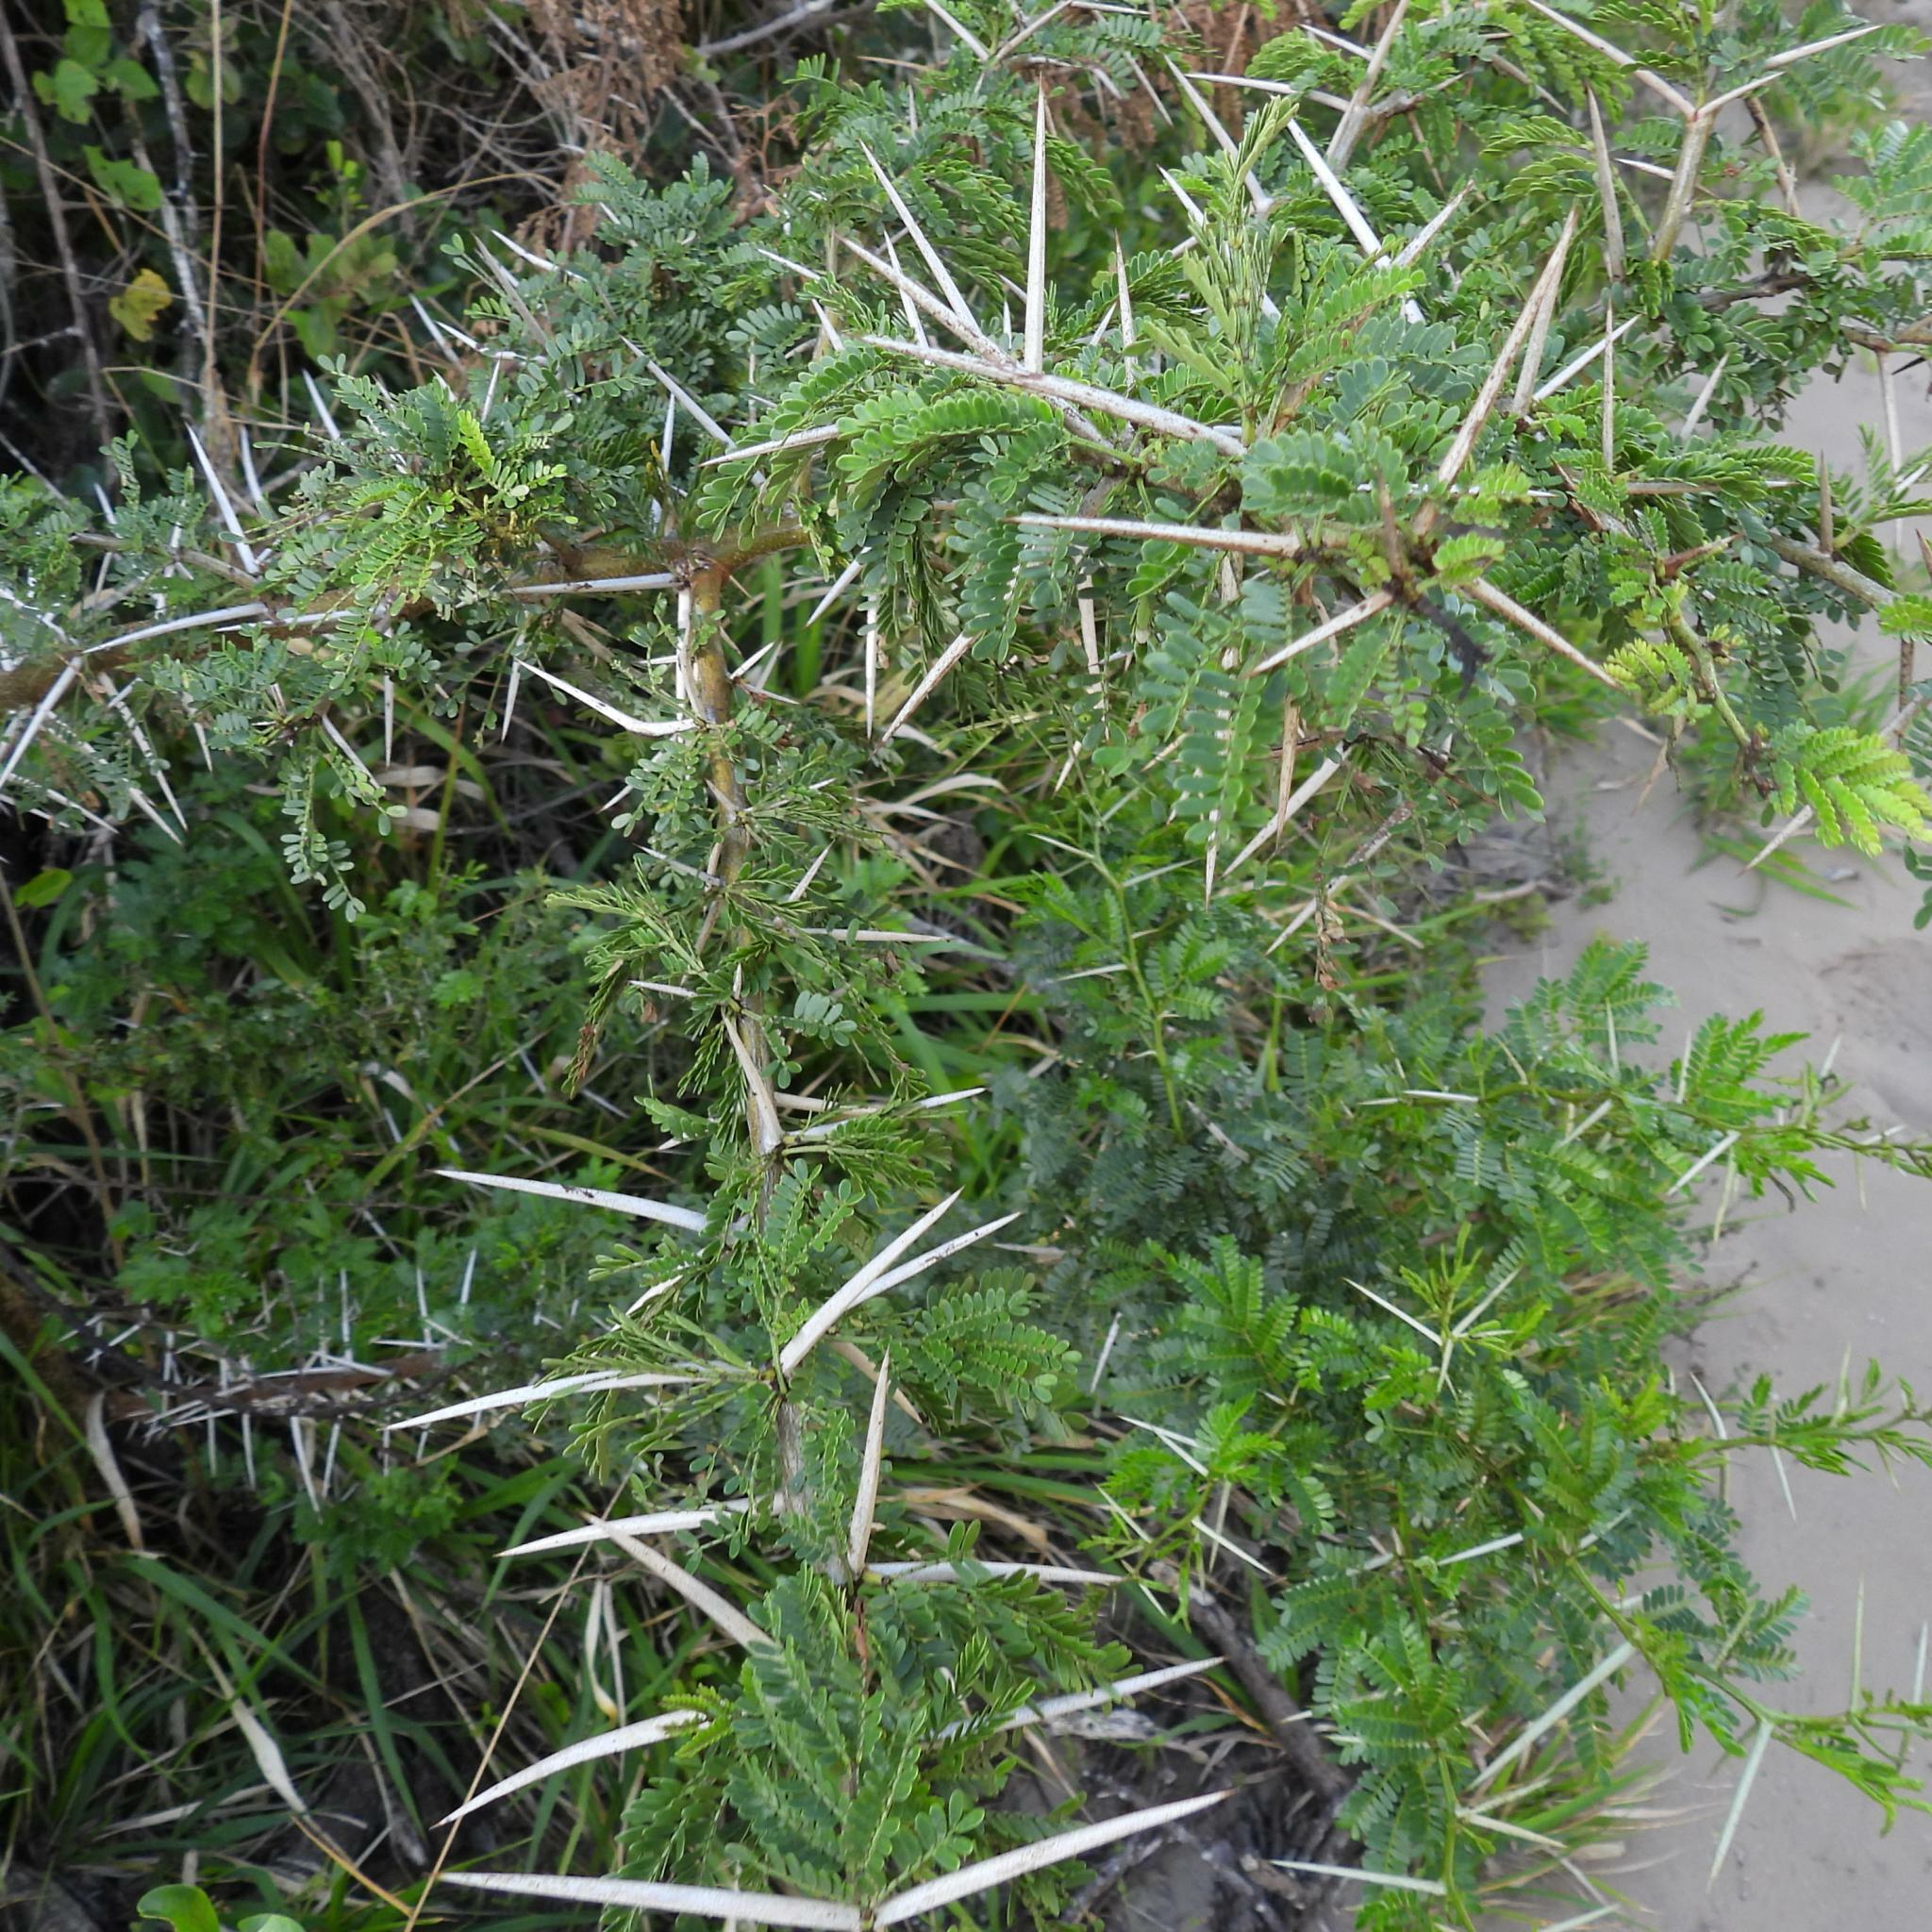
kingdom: Plantae
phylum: Tracheophyta
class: Magnoliopsida
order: Fabales
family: Fabaceae
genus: Vachellia
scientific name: Vachellia karroo
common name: Sweet thorn
